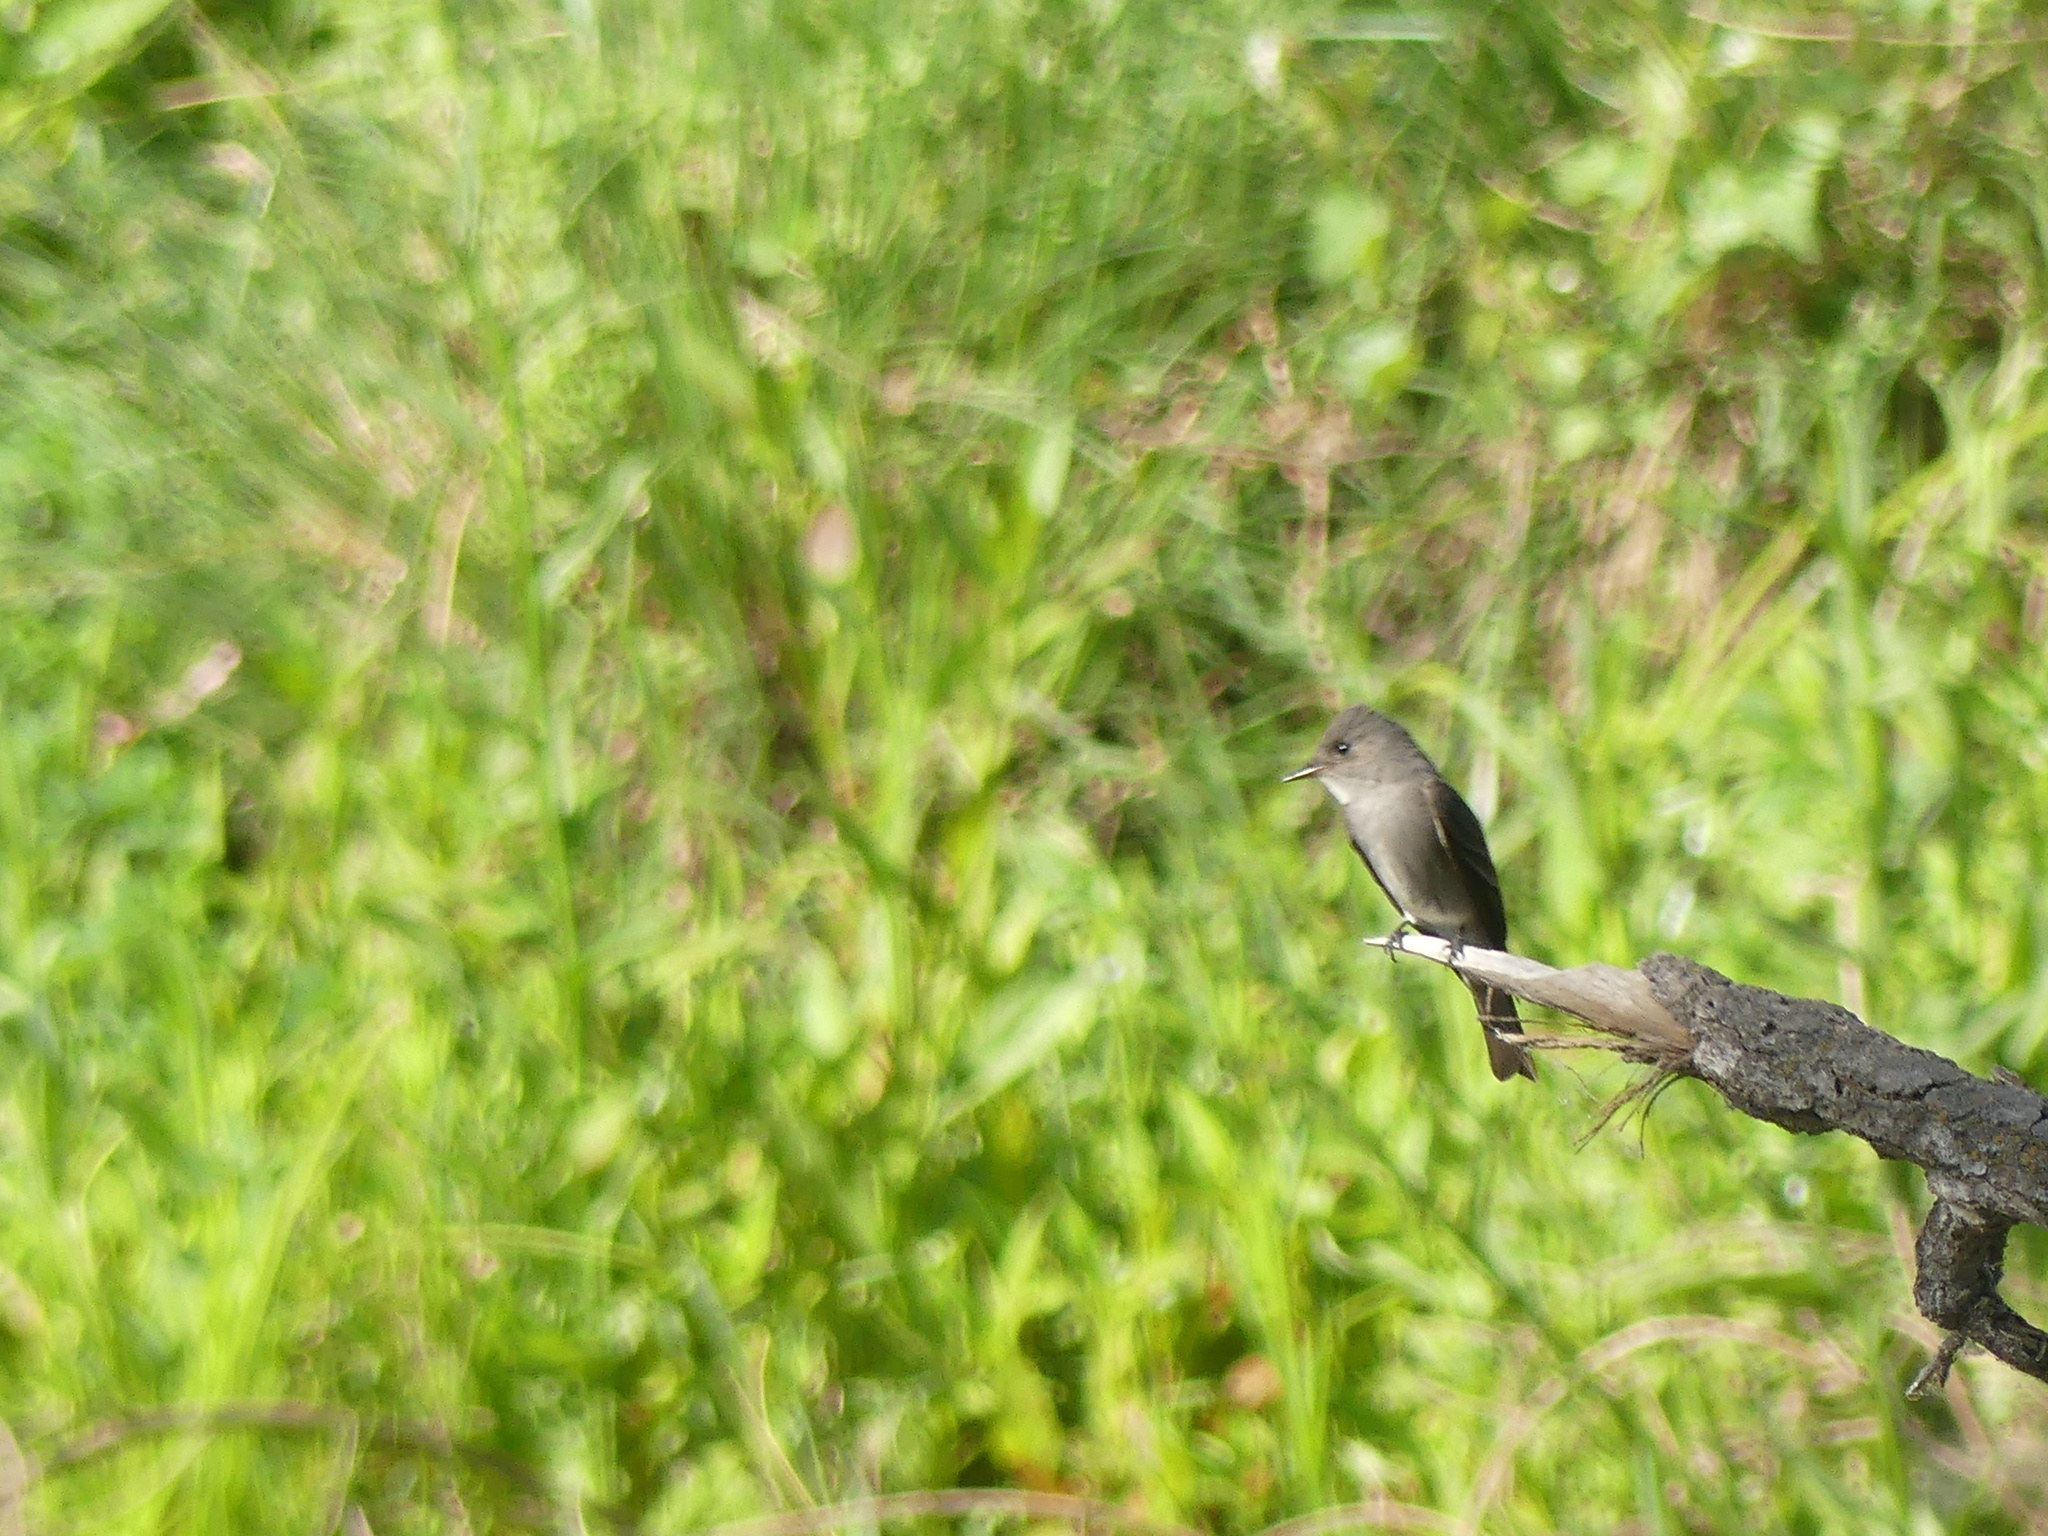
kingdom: Animalia
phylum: Chordata
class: Aves
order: Passeriformes
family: Tyrannidae
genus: Contopus
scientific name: Contopus sordidulus
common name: Western wood-pewee
